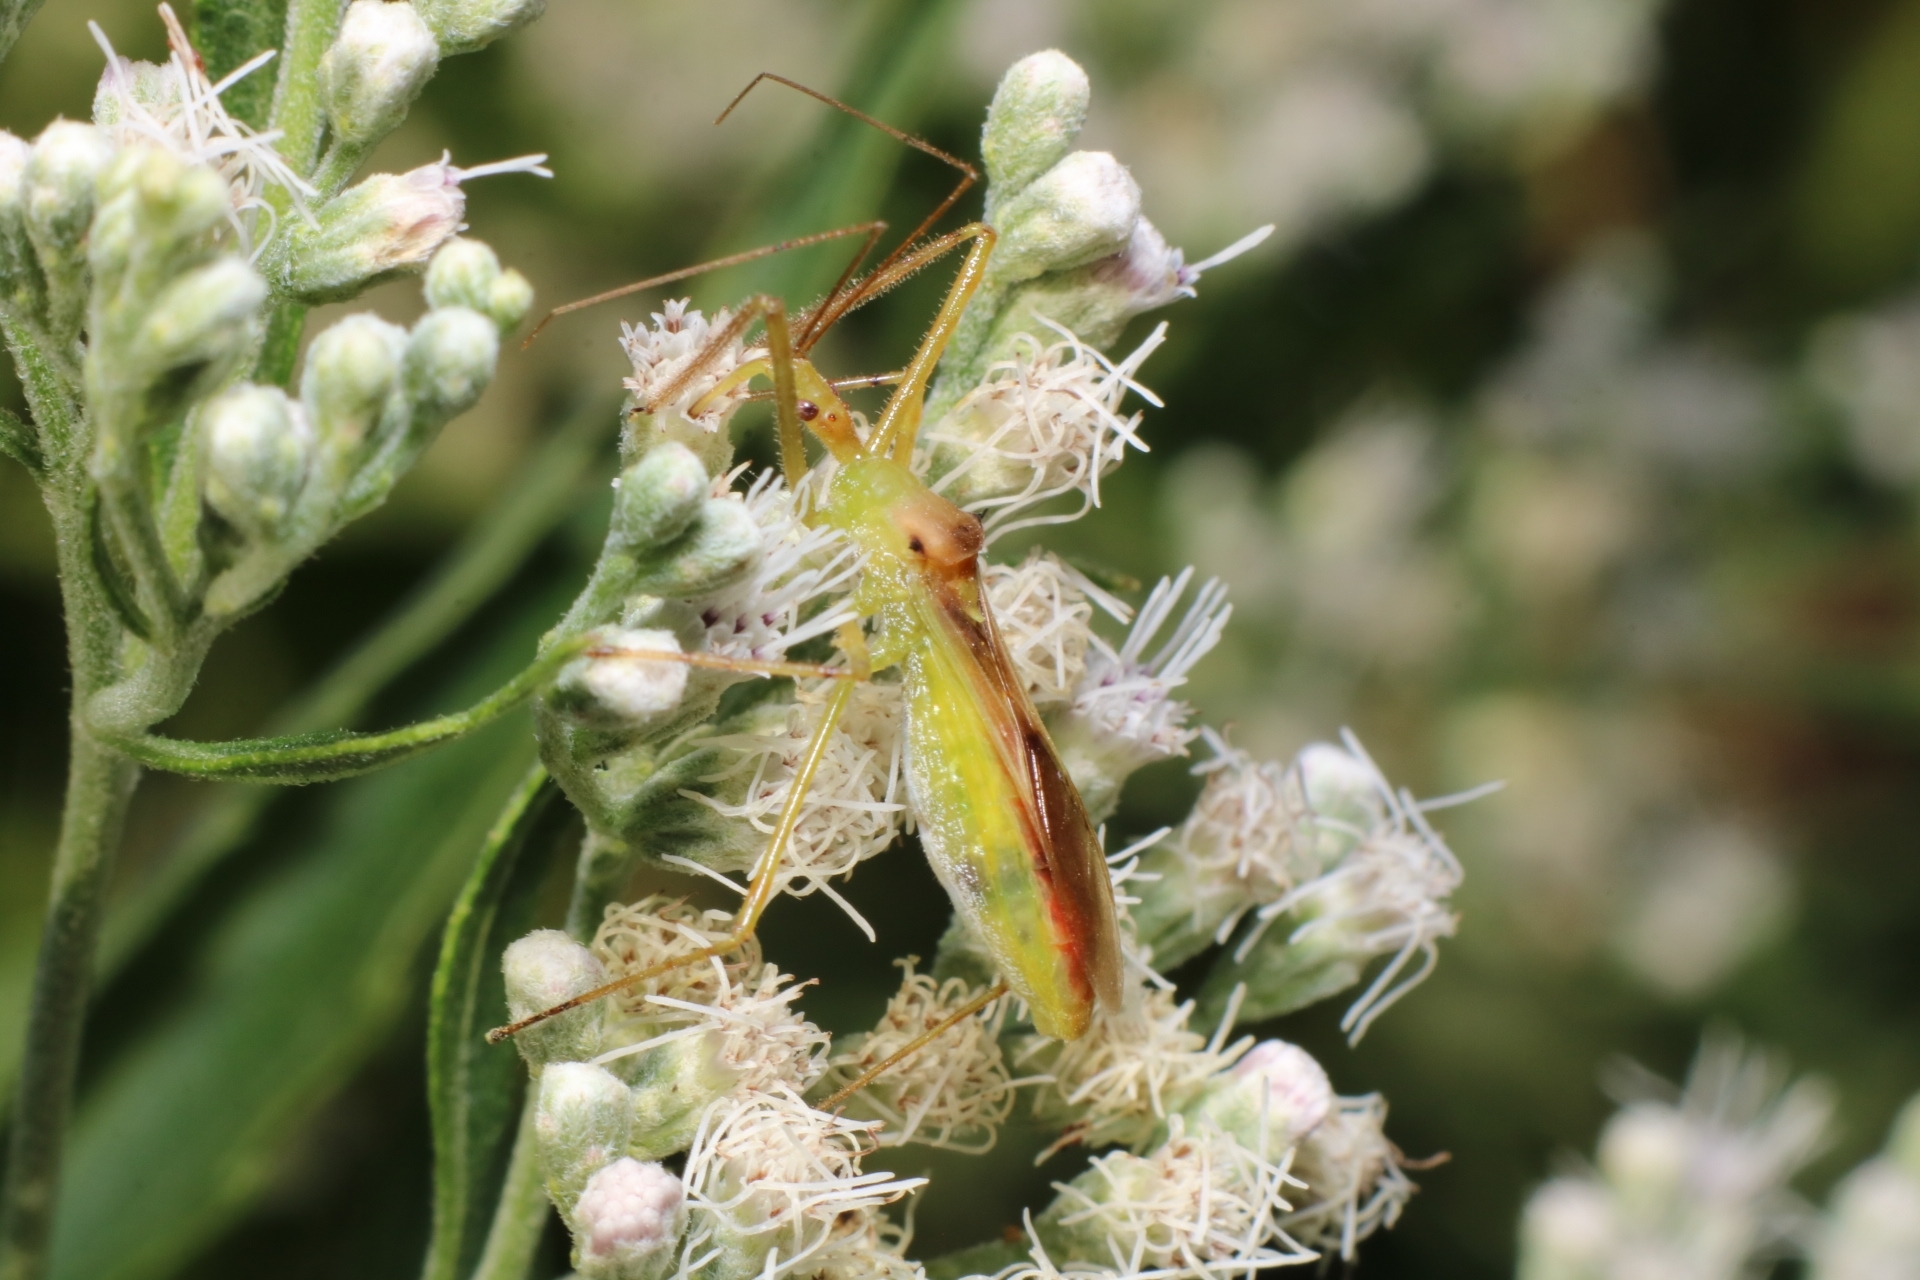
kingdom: Animalia
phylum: Arthropoda
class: Insecta
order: Hemiptera
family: Reduviidae
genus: Zelus
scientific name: Zelus luridus
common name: Pale green assassin bug
